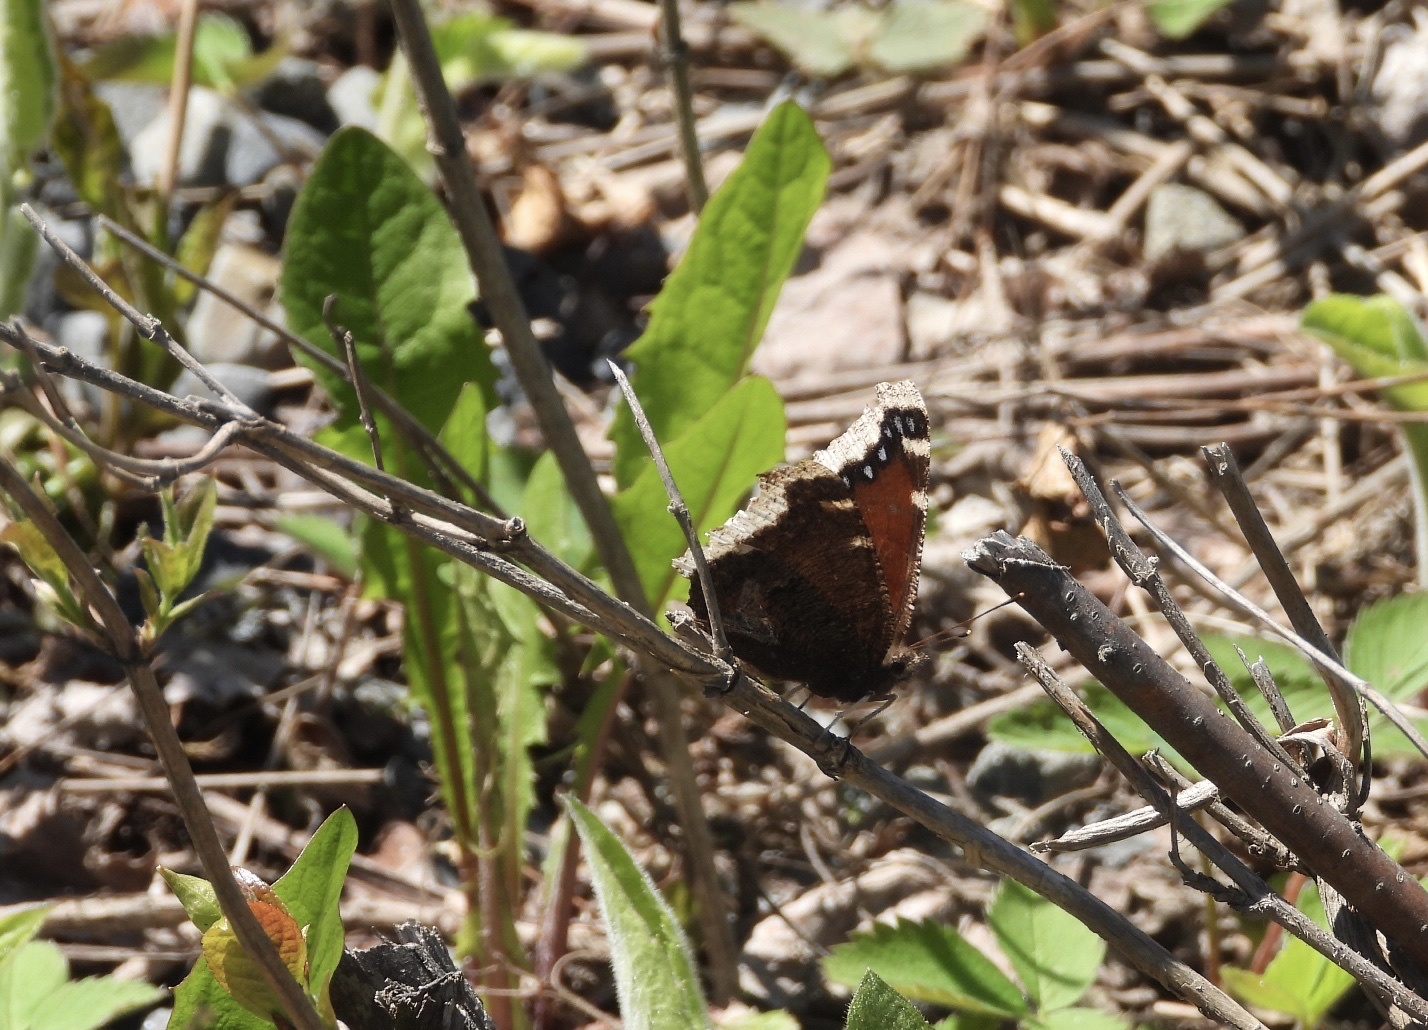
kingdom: Animalia
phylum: Arthropoda
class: Insecta
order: Lepidoptera
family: Nymphalidae
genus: Nymphalis
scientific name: Nymphalis antiopa
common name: Camberwell beauty
